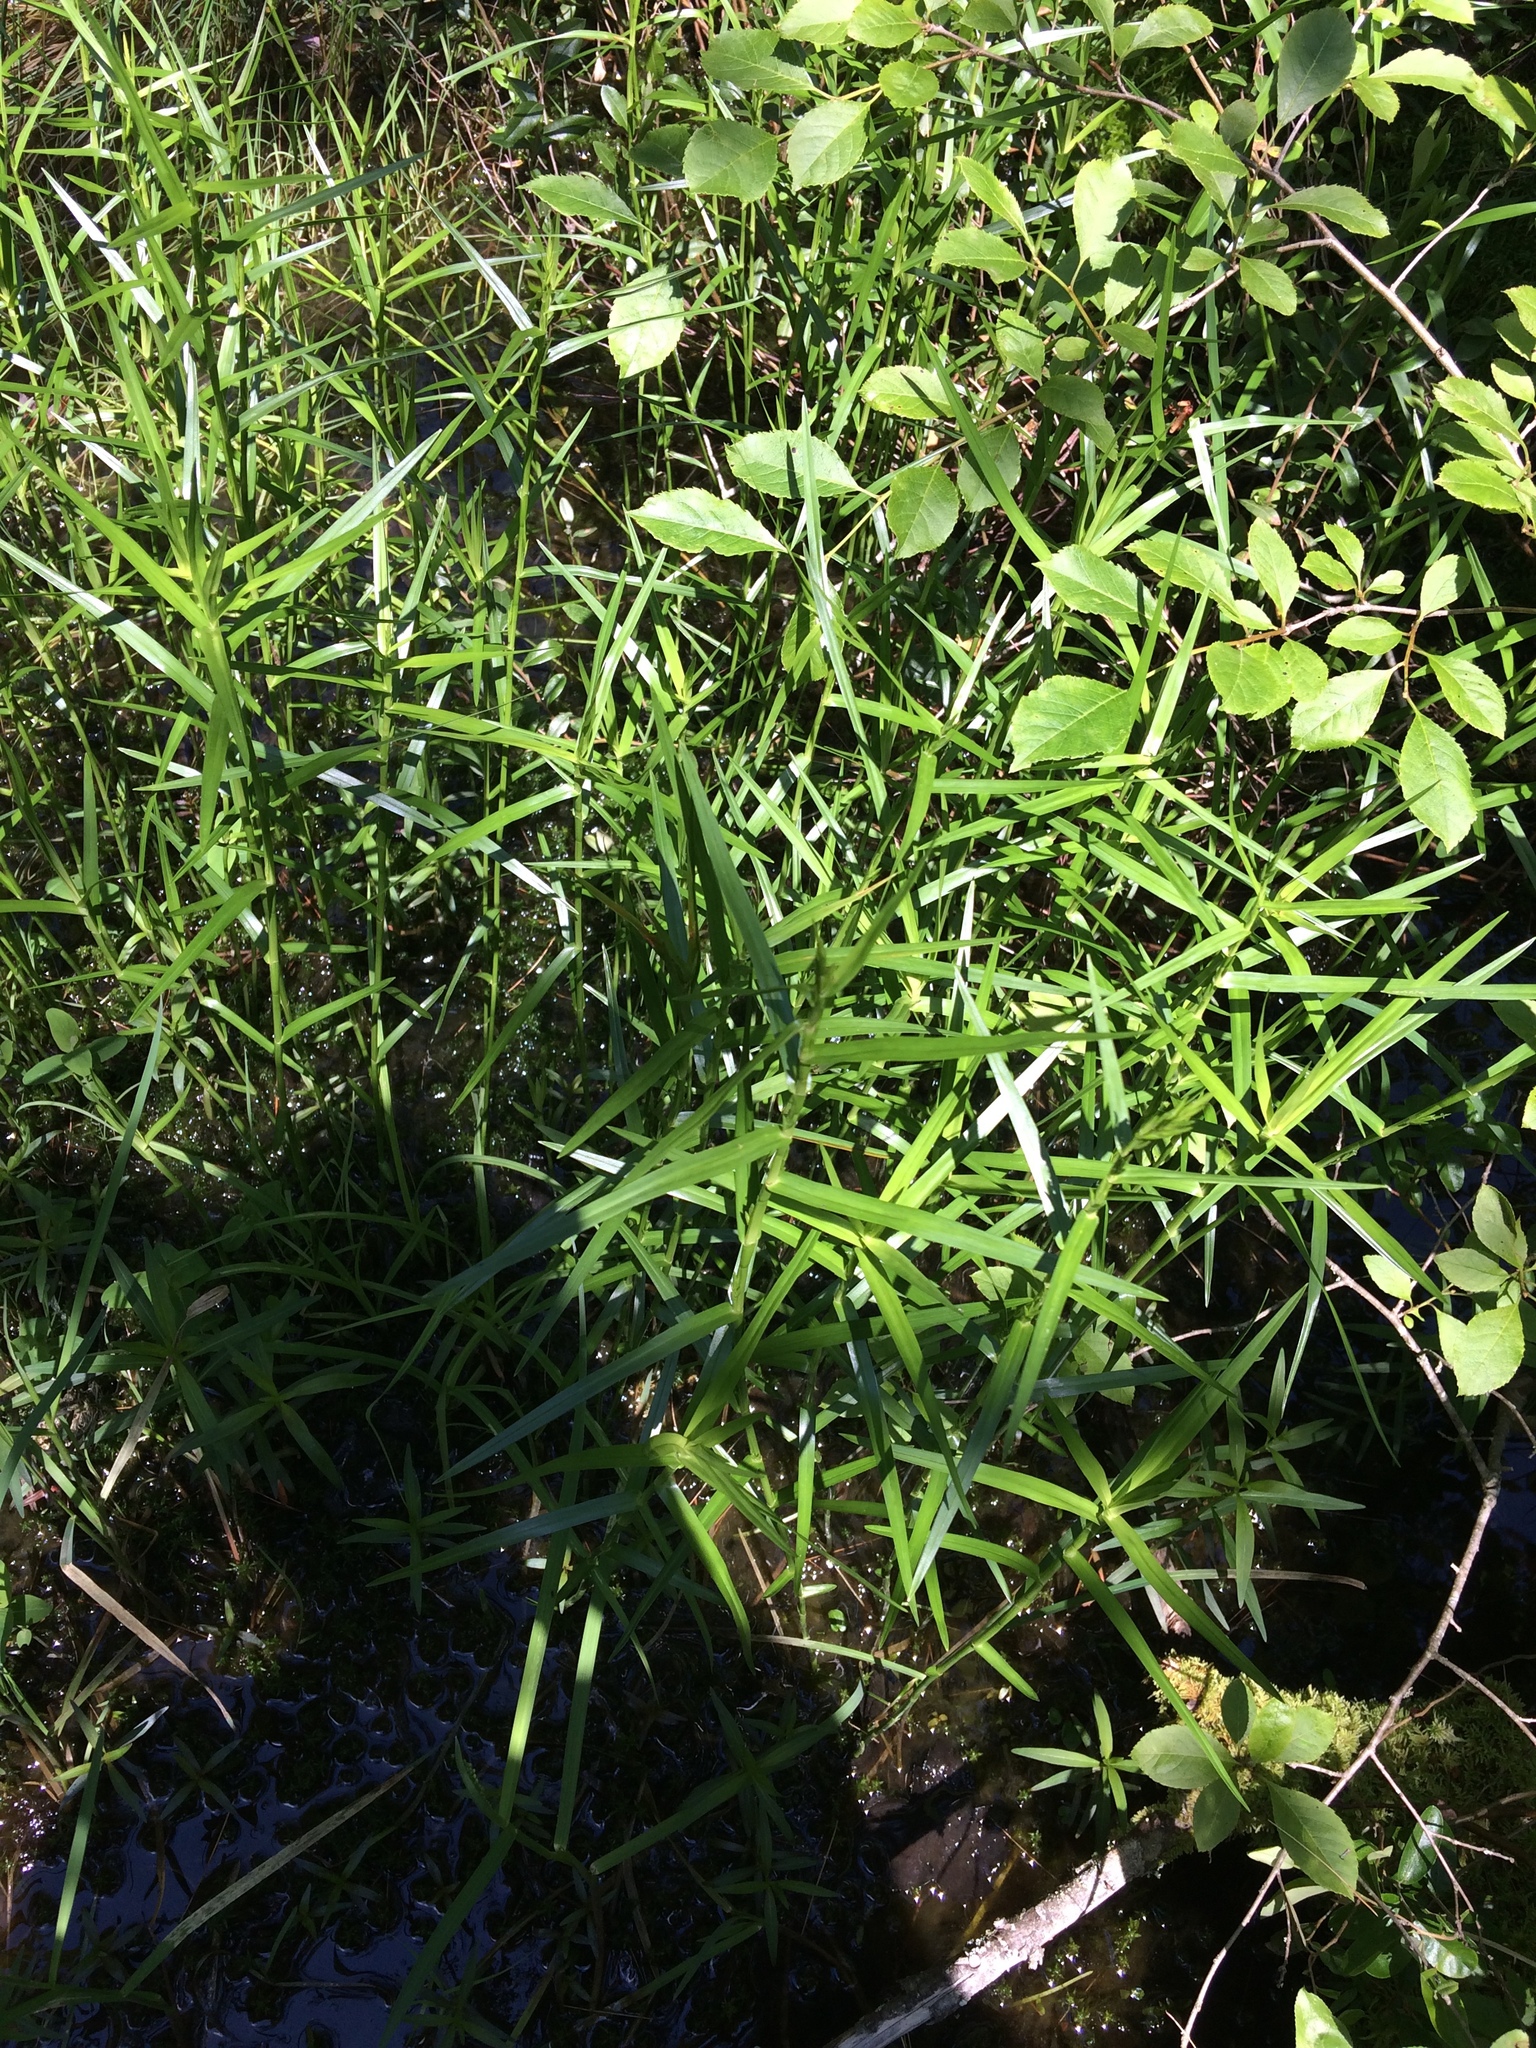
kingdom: Plantae
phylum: Tracheophyta
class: Liliopsida
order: Poales
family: Cyperaceae
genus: Dulichium
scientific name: Dulichium arundinaceum
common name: Three-way sedge
